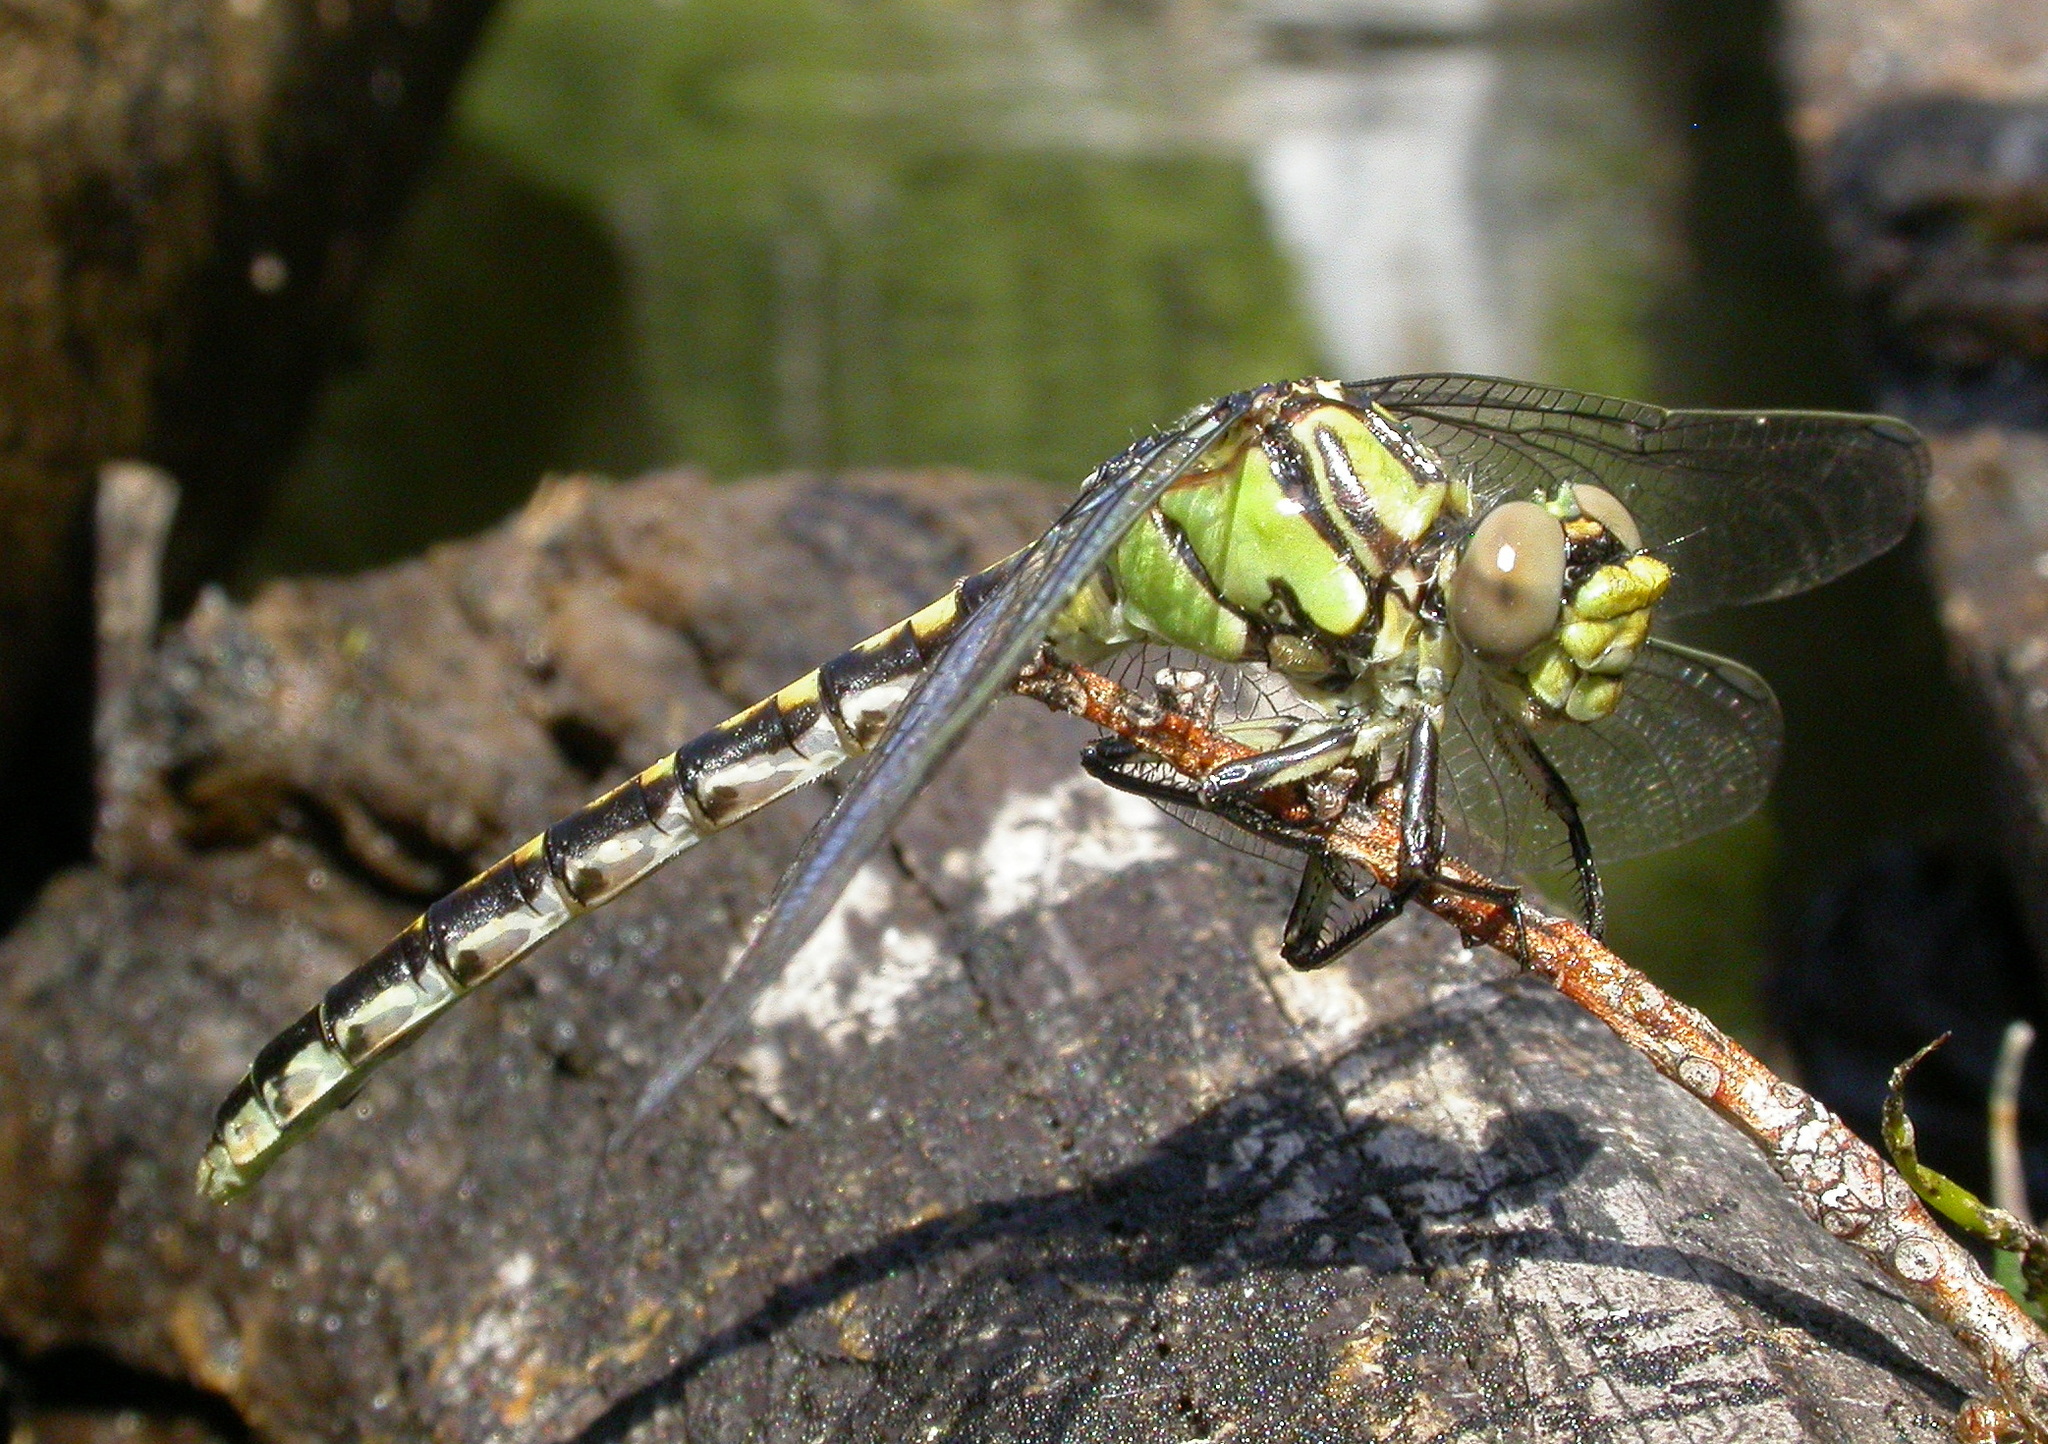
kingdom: Animalia
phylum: Arthropoda
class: Insecta
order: Odonata
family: Gomphidae
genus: Ophiogomphus
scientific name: Ophiogomphus morrisoni
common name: Great basin snaketail
